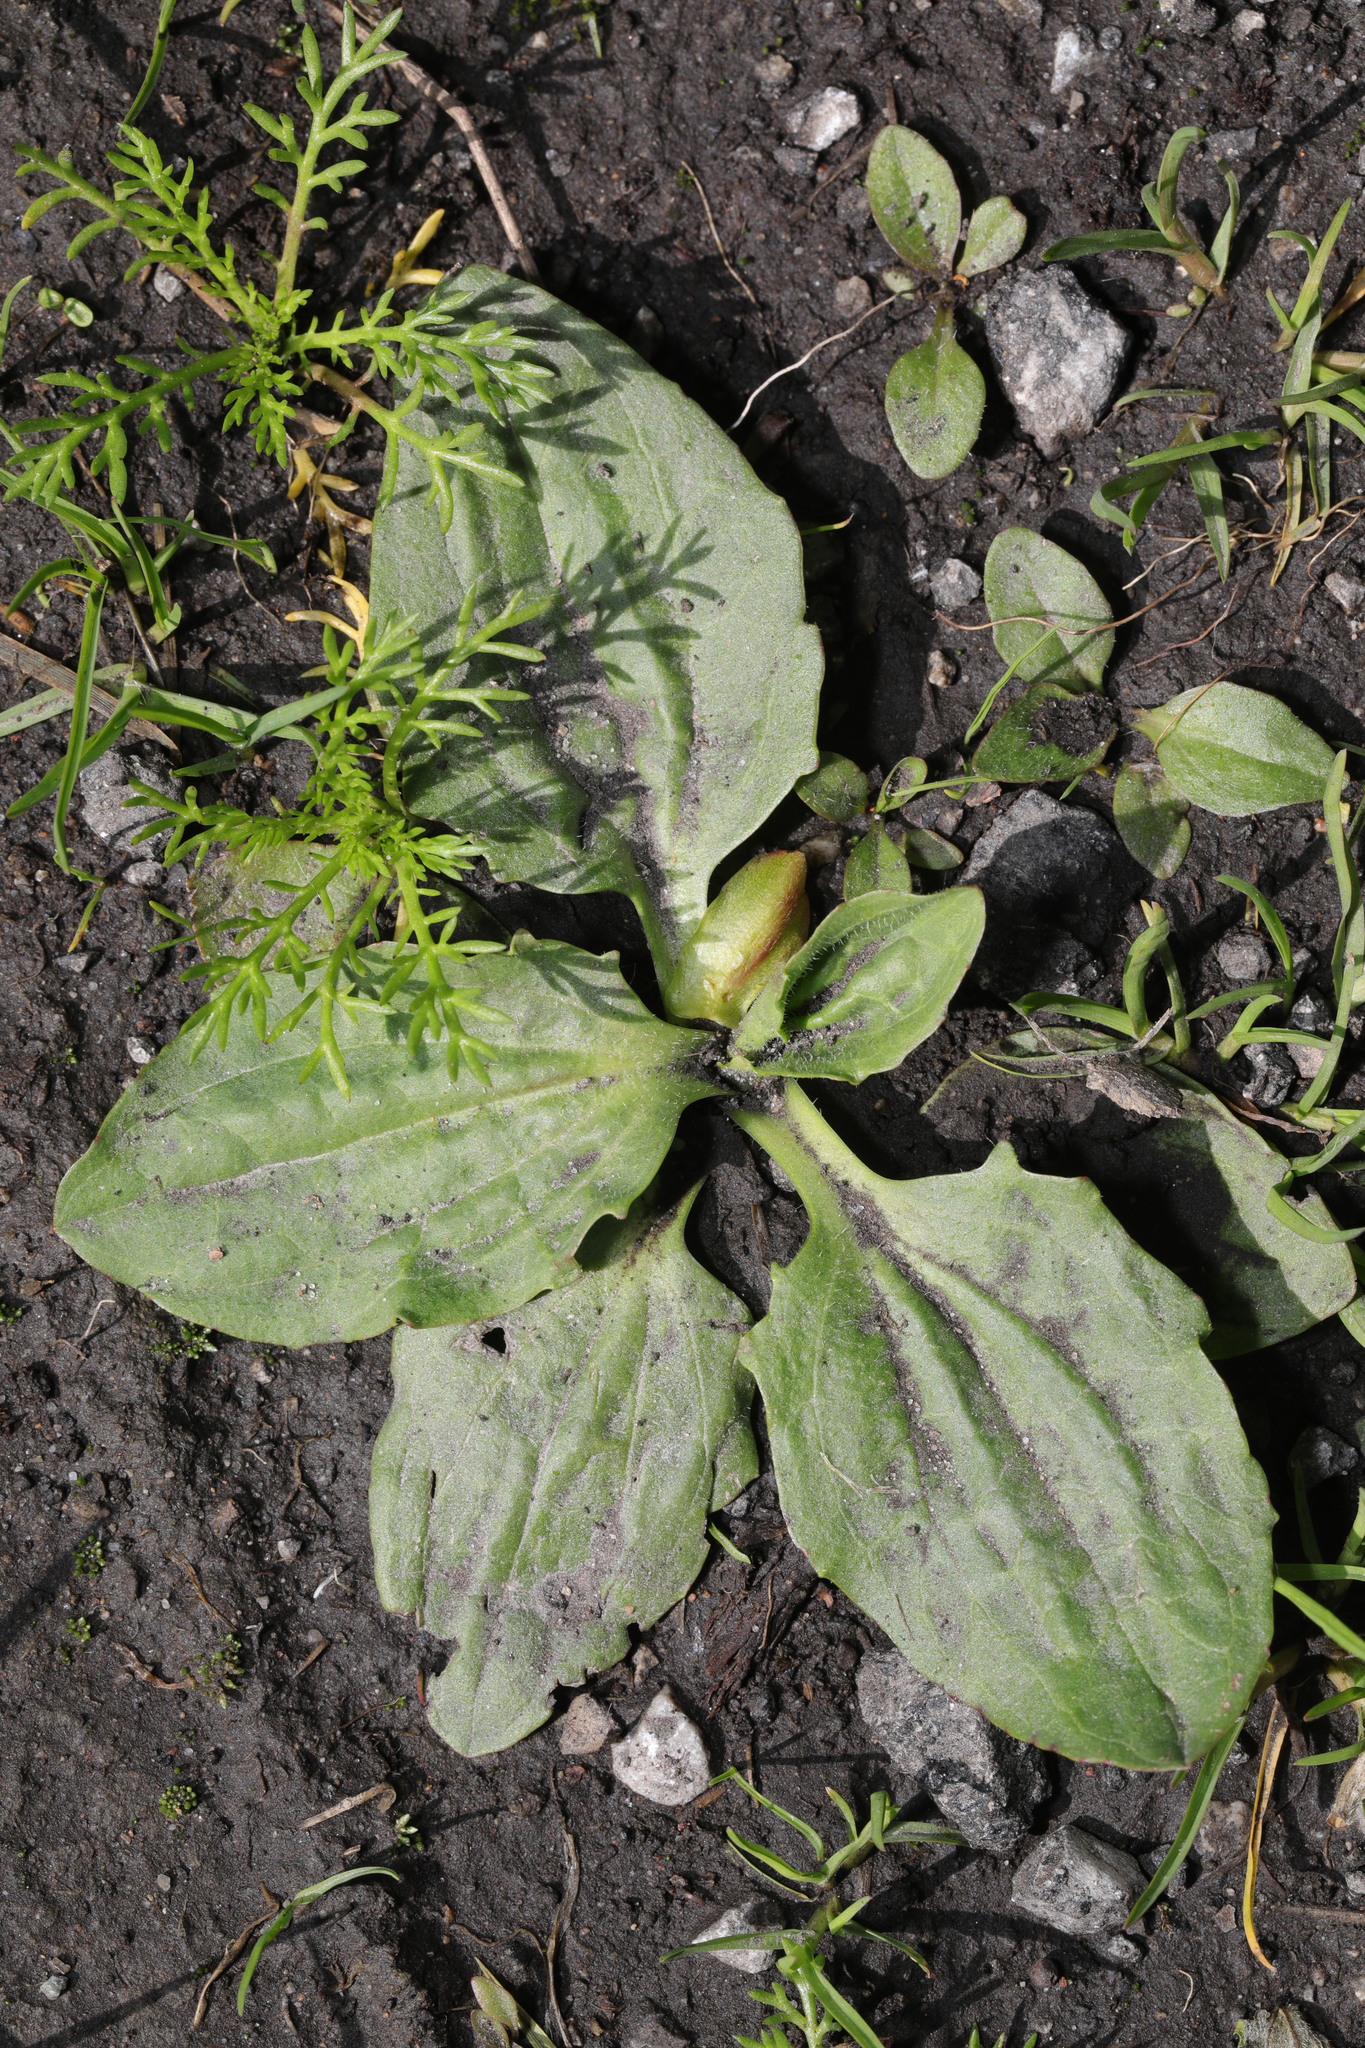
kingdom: Plantae
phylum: Tracheophyta
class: Magnoliopsida
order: Lamiales
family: Plantaginaceae
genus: Plantago
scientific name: Plantago major
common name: Common plantain
